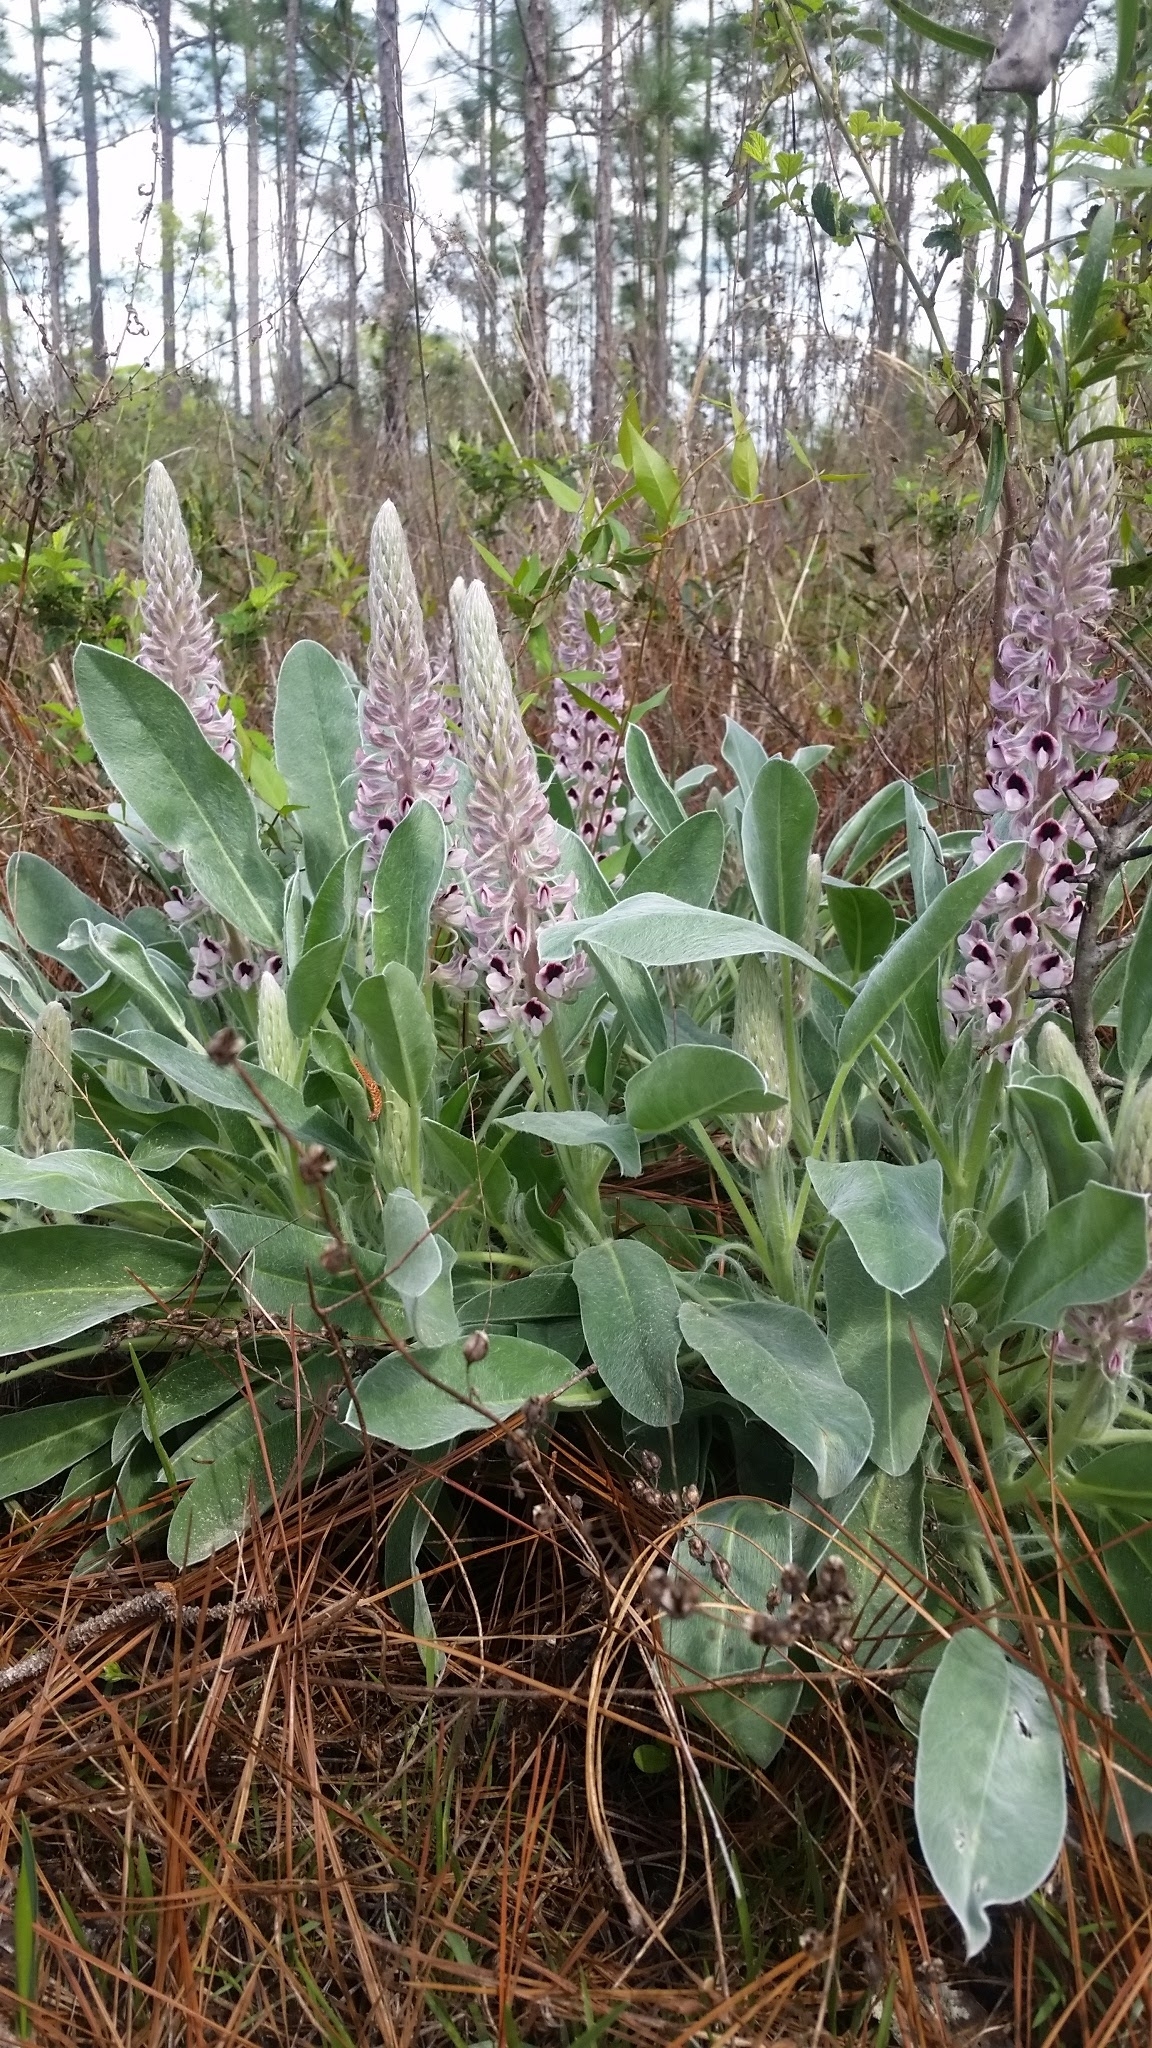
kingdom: Plantae
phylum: Tracheophyta
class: Magnoliopsida
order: Fabales
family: Fabaceae
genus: Lupinus
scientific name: Lupinus villosus
